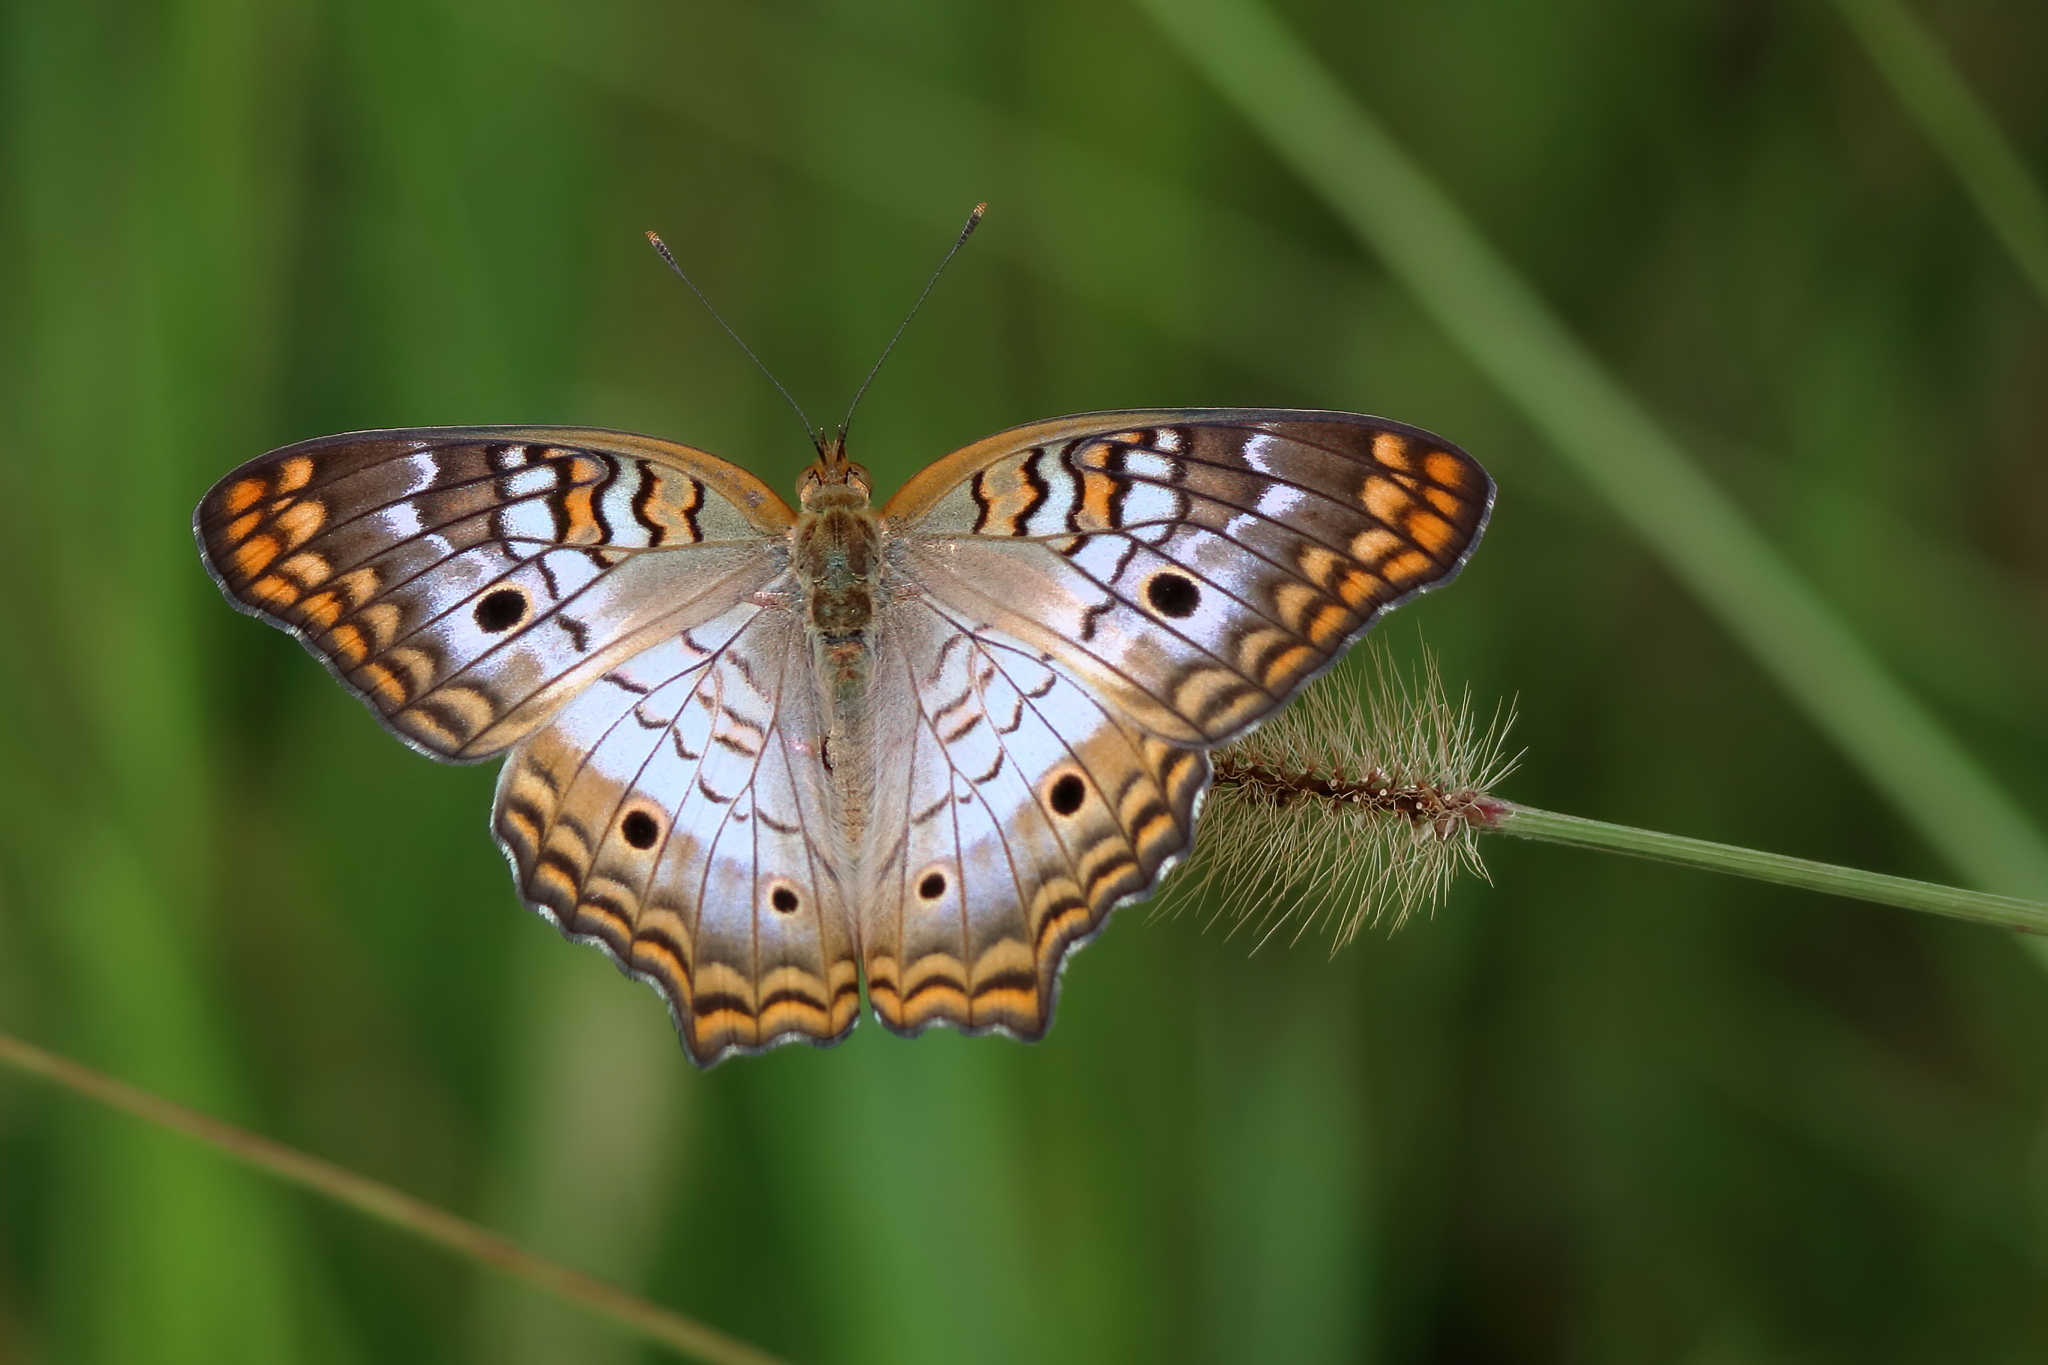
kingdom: Animalia
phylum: Arthropoda
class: Insecta
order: Lepidoptera
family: Nymphalidae
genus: Anartia
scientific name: Anartia jatrophae
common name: White peacock
